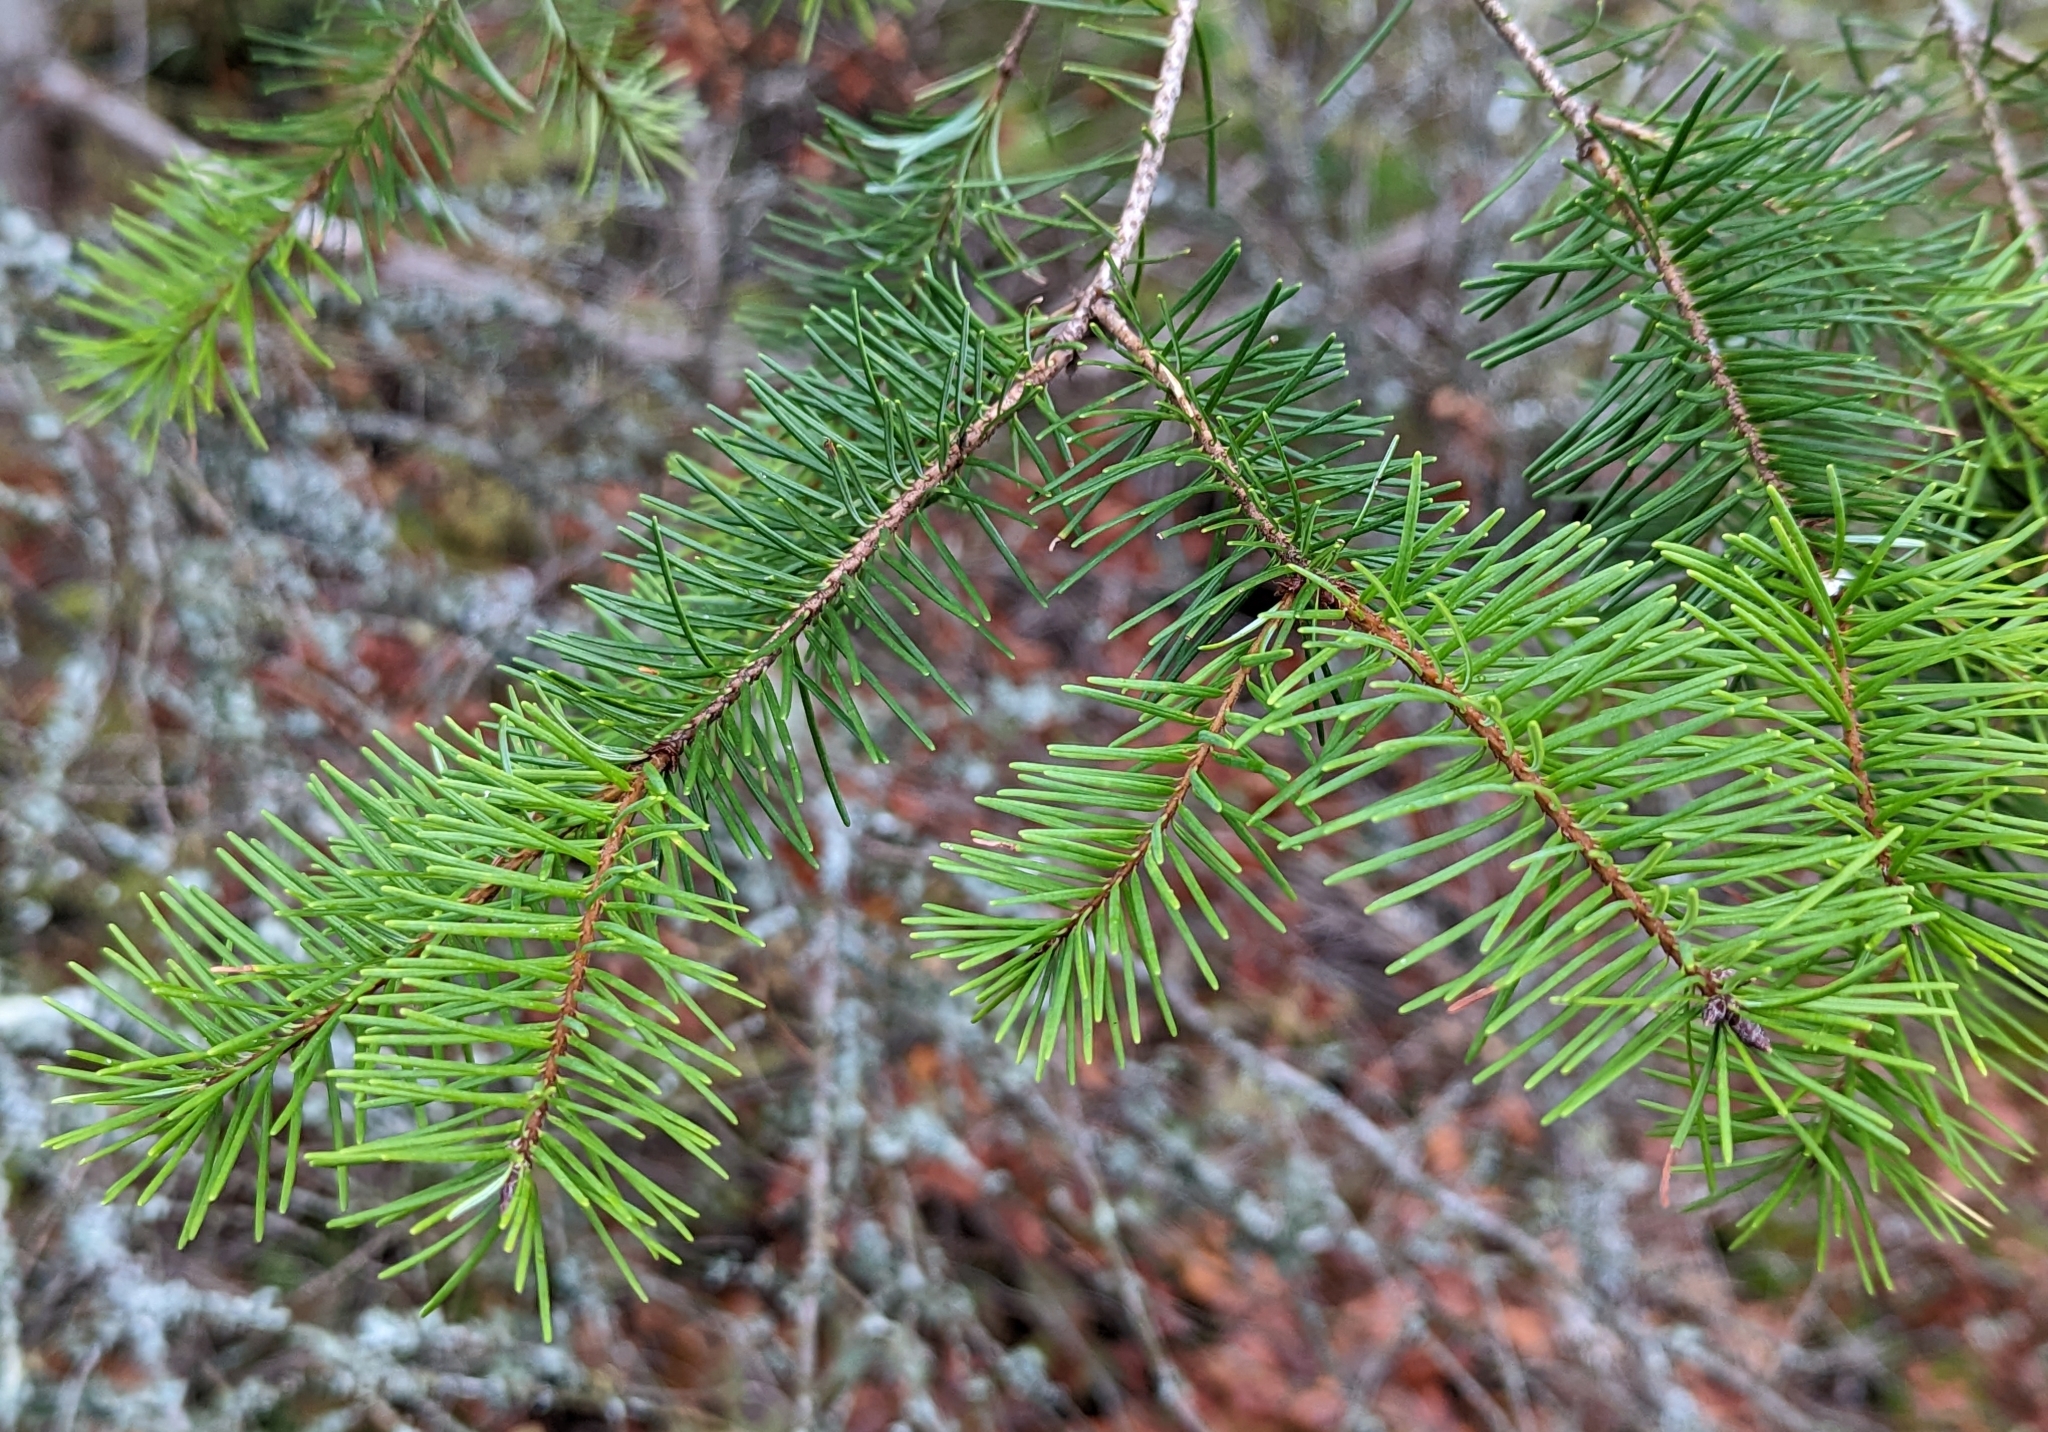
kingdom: Plantae
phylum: Tracheophyta
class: Pinopsida
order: Pinales
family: Pinaceae
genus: Pseudotsuga
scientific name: Pseudotsuga menziesii
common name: Douglas fir
